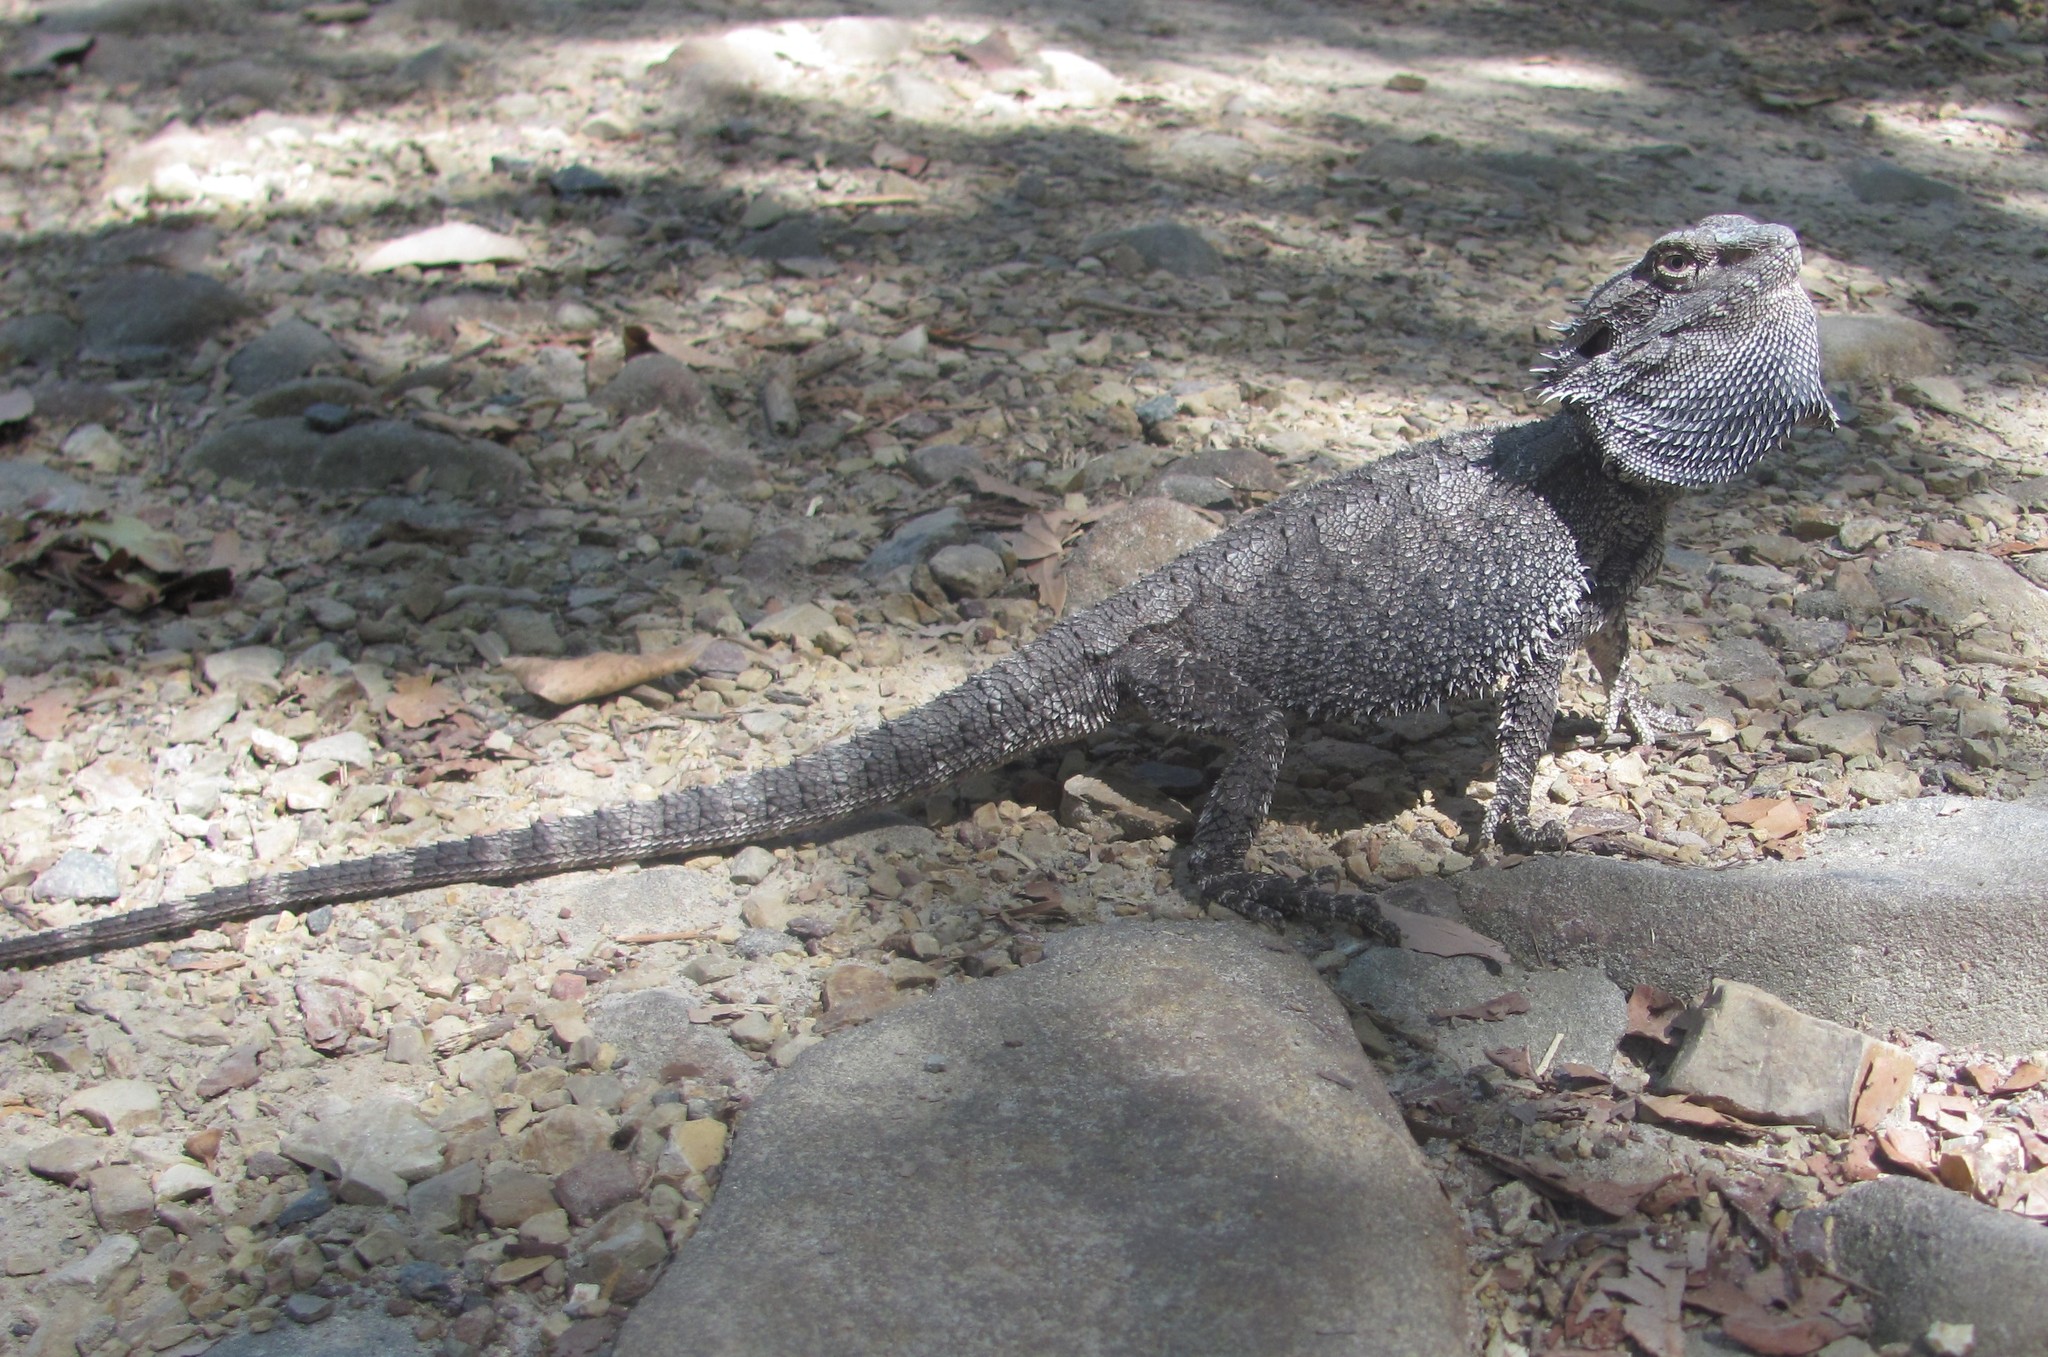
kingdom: Animalia
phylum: Chordata
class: Squamata
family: Agamidae
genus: Pogona
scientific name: Pogona barbata
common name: Bearded dragon
